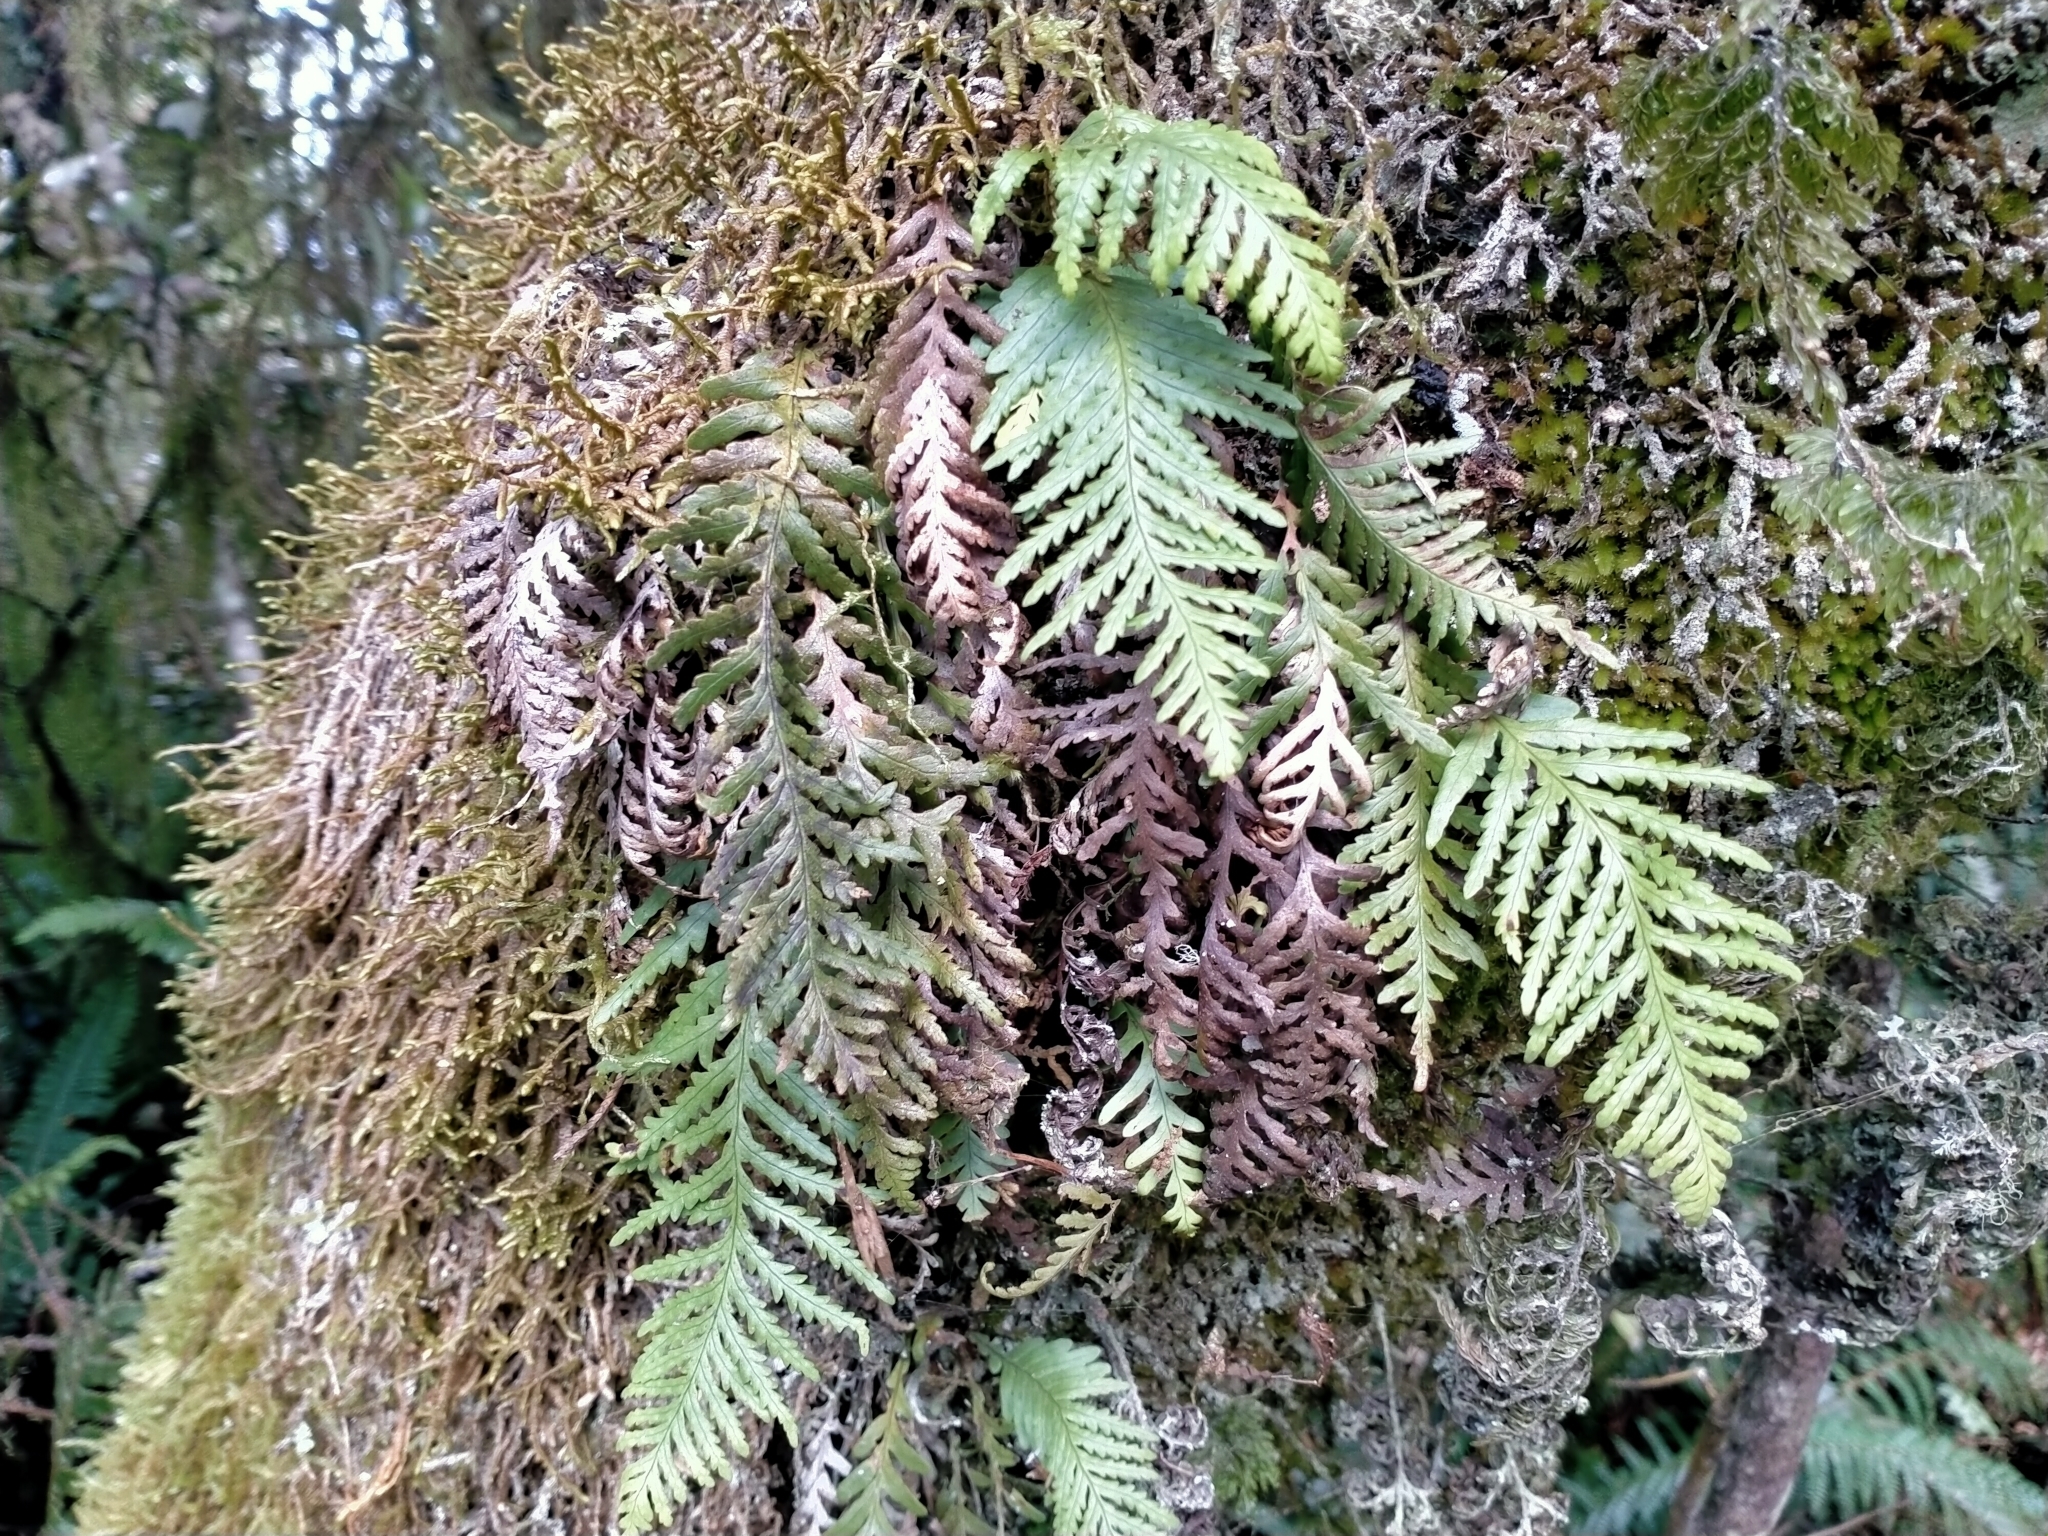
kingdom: Plantae
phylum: Tracheophyta
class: Polypodiopsida
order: Polypodiales
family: Polypodiaceae
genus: Notogrammitis
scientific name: Notogrammitis heterophylla
